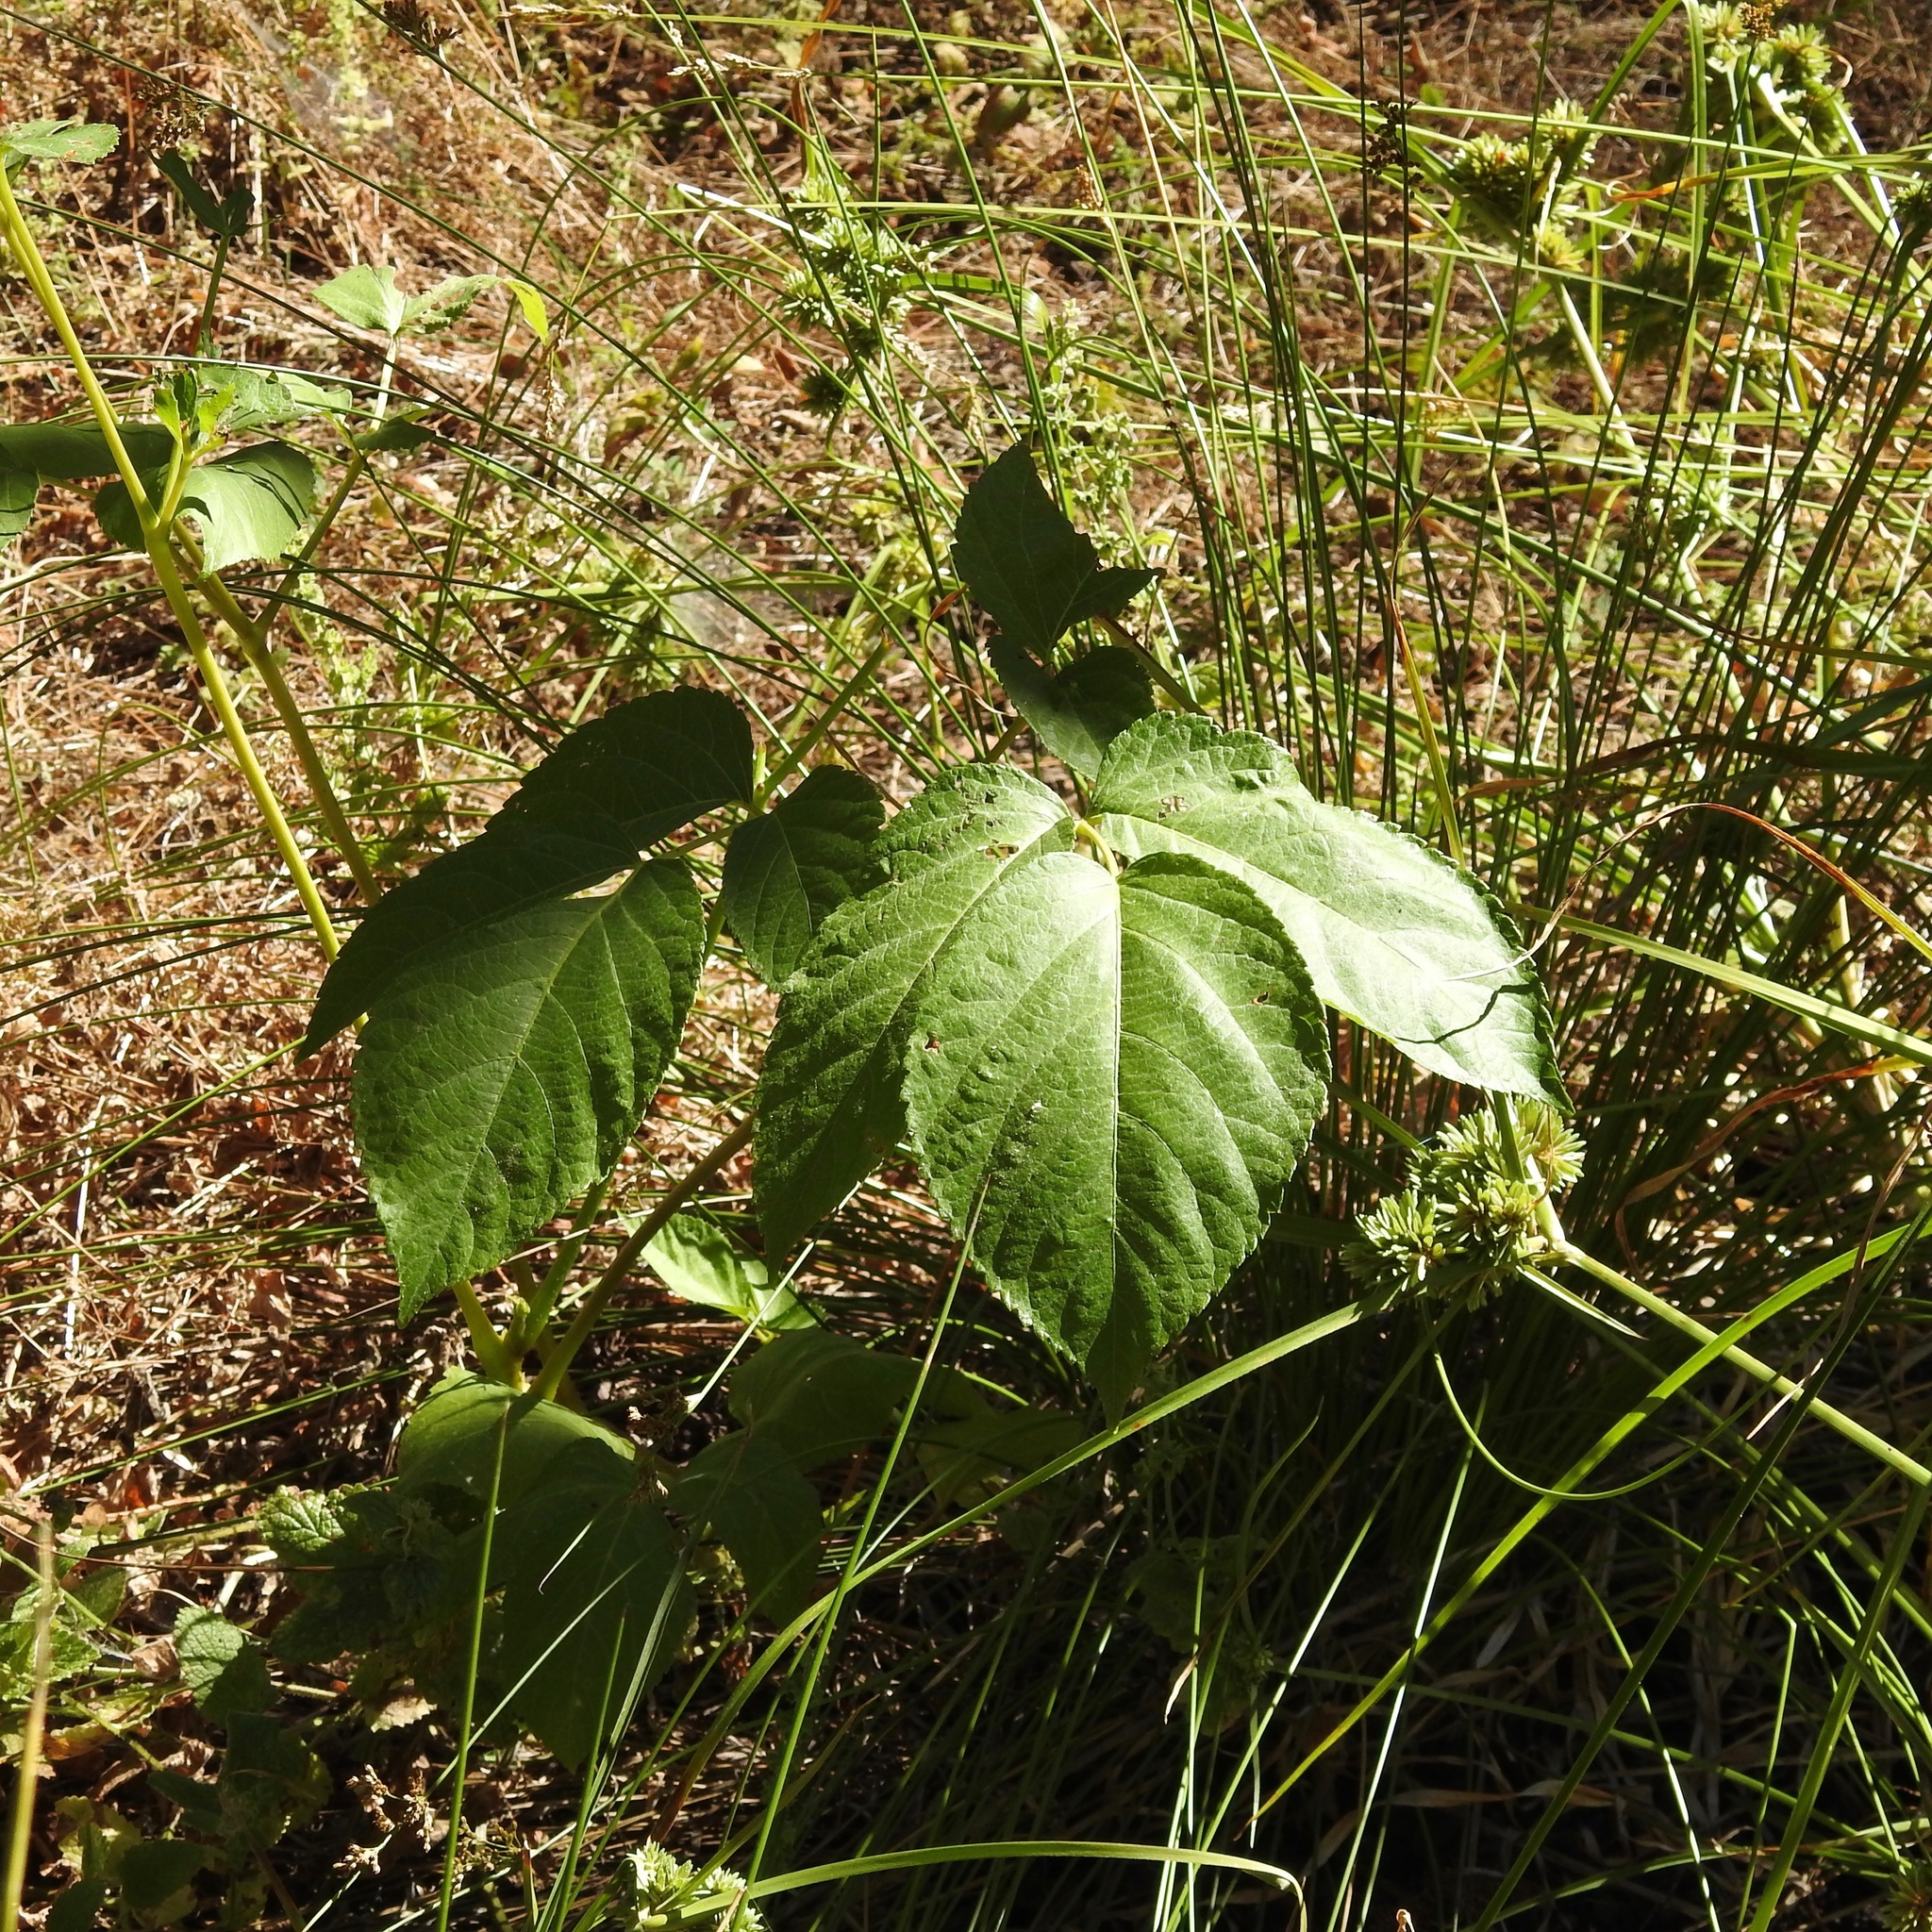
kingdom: Plantae
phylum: Tracheophyta
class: Magnoliopsida
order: Apiales
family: Araliaceae
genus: Aralia
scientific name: Aralia californica
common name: California-ginseng
